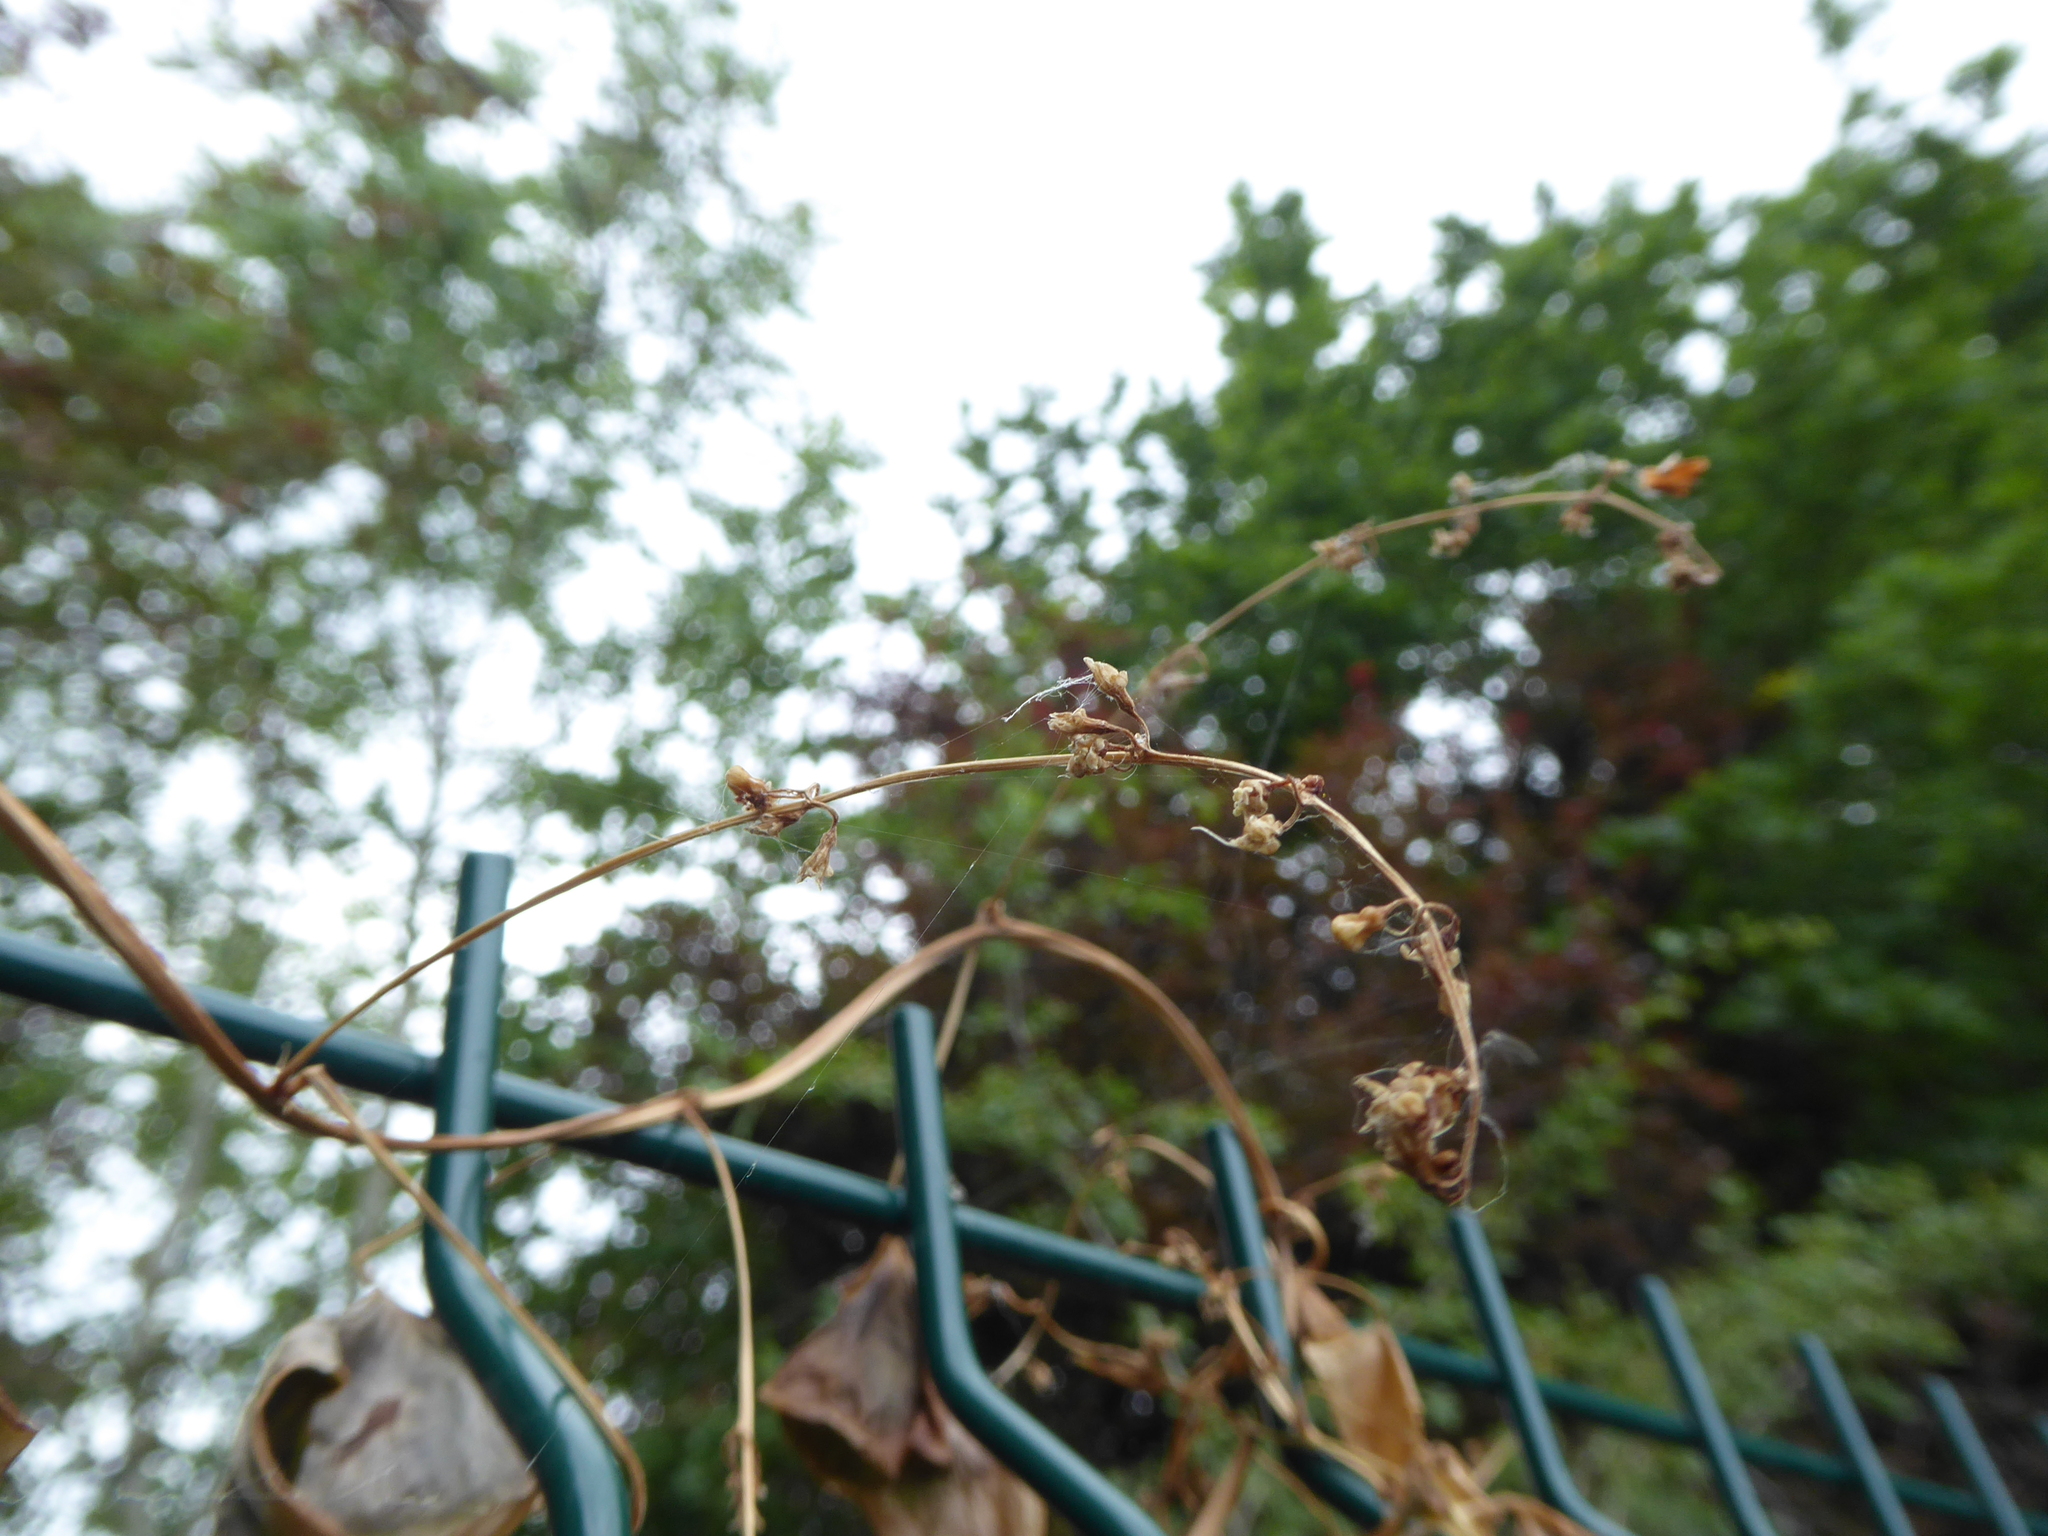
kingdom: Plantae
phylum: Tracheophyta
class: Liliopsida
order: Dioscoreales
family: Dioscoreaceae
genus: Dioscorea
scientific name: Dioscorea communis
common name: Black-bindweed
